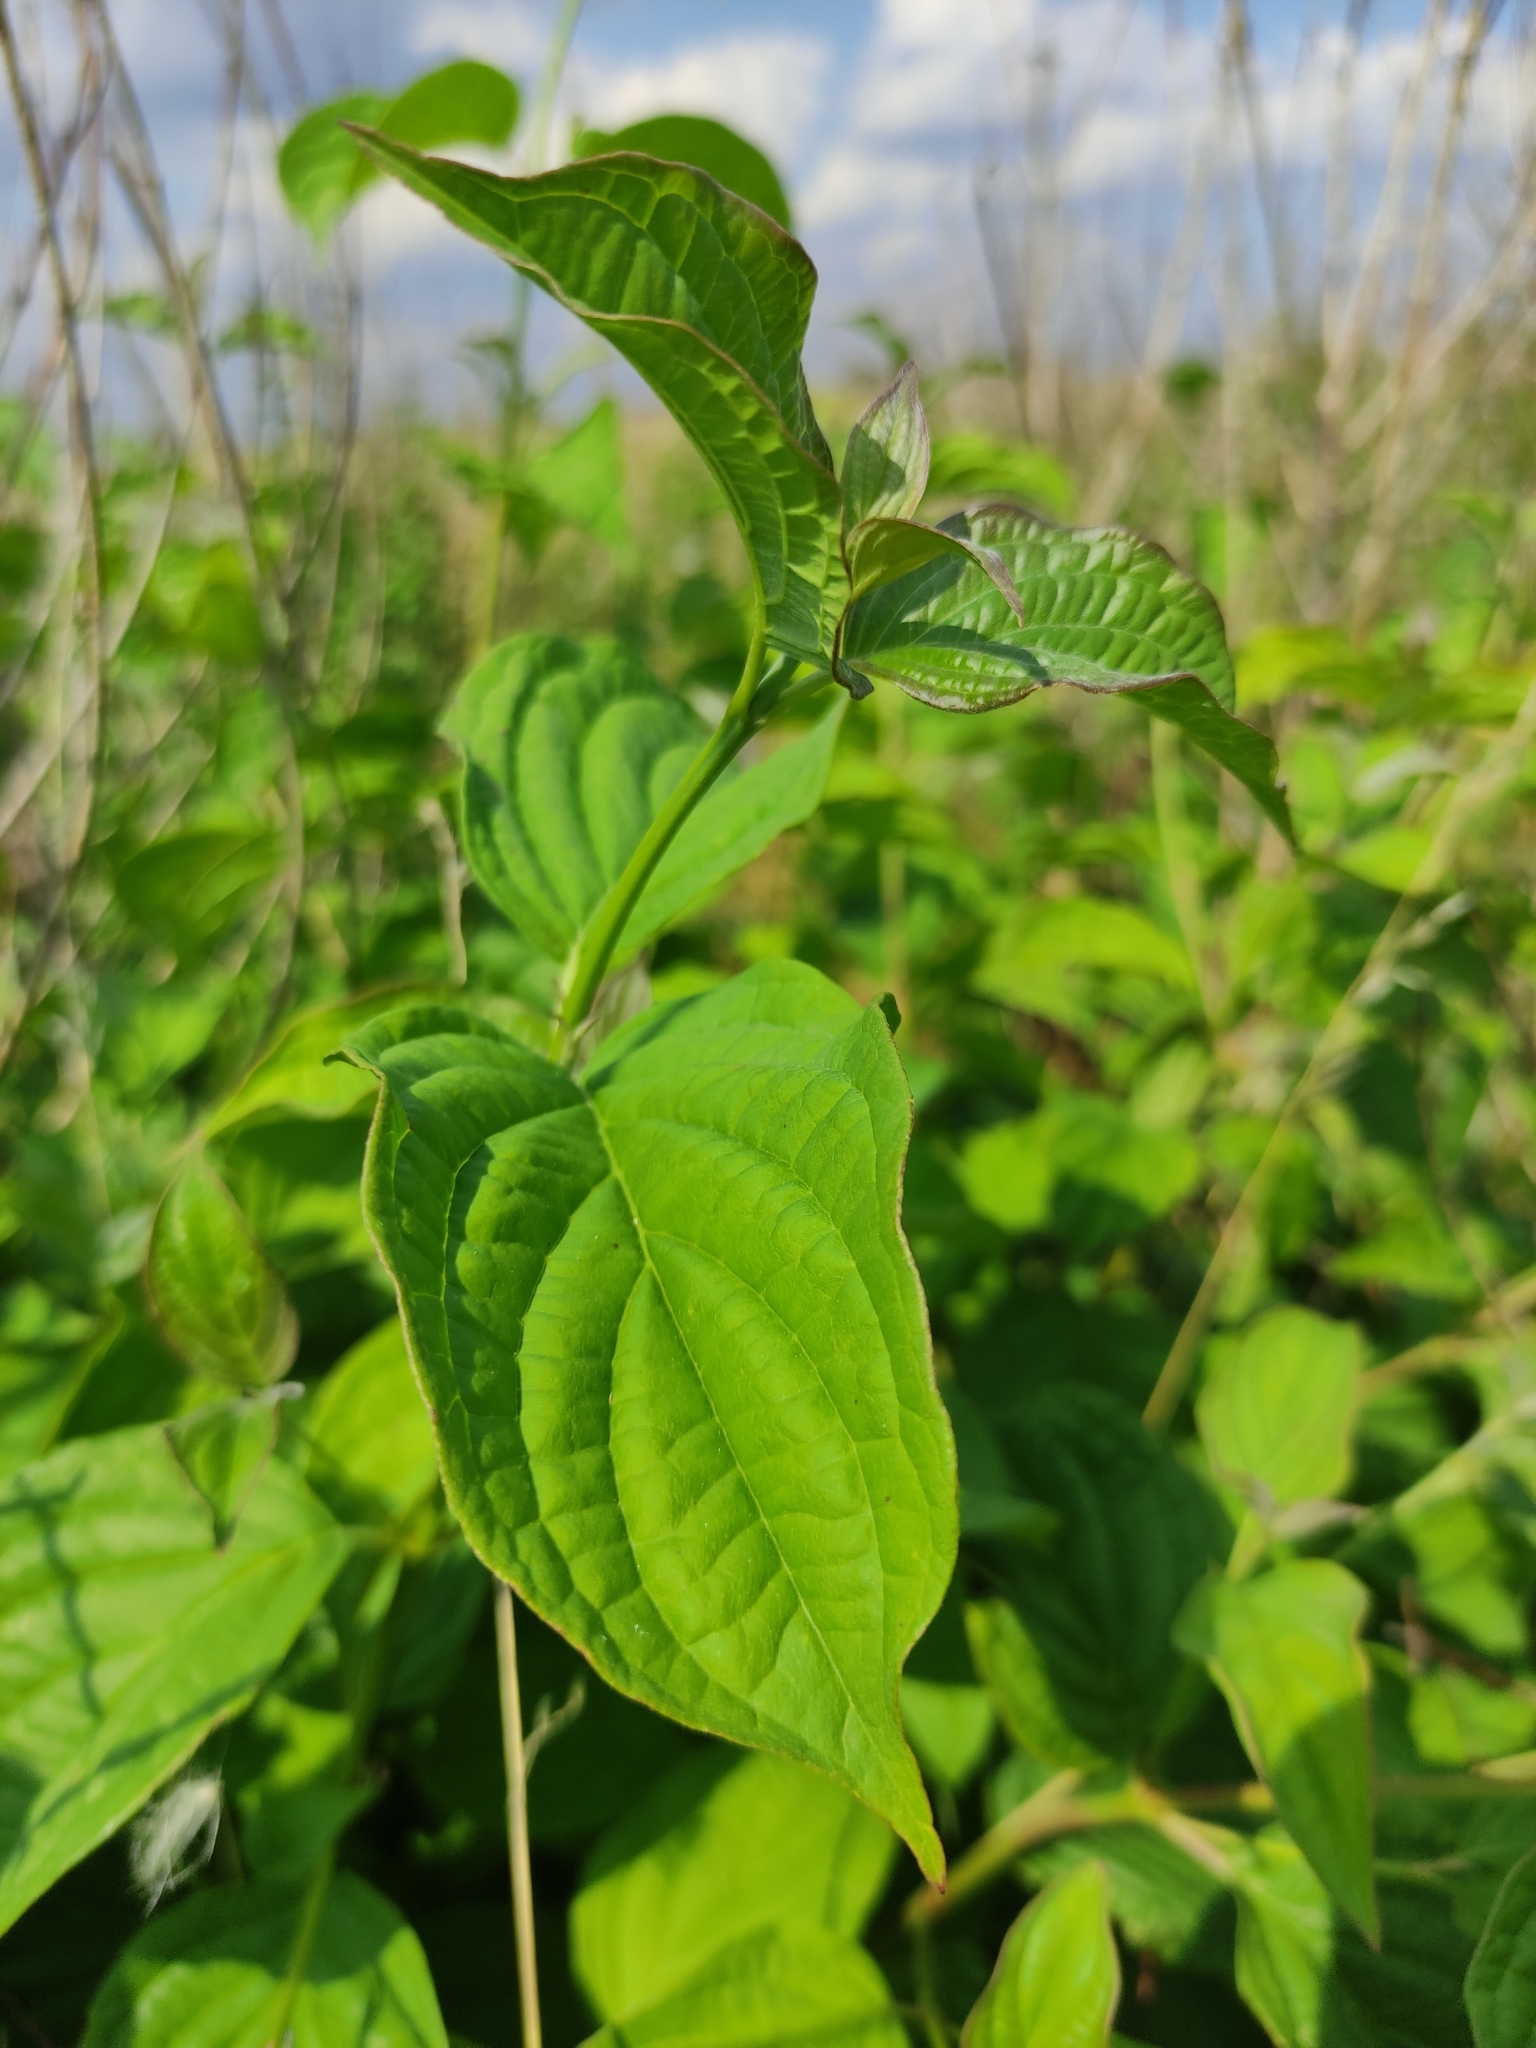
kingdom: Plantae
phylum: Tracheophyta
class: Magnoliopsida
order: Cornales
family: Cornaceae
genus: Cornus
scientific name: Cornus sanguinea
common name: Dogwood
